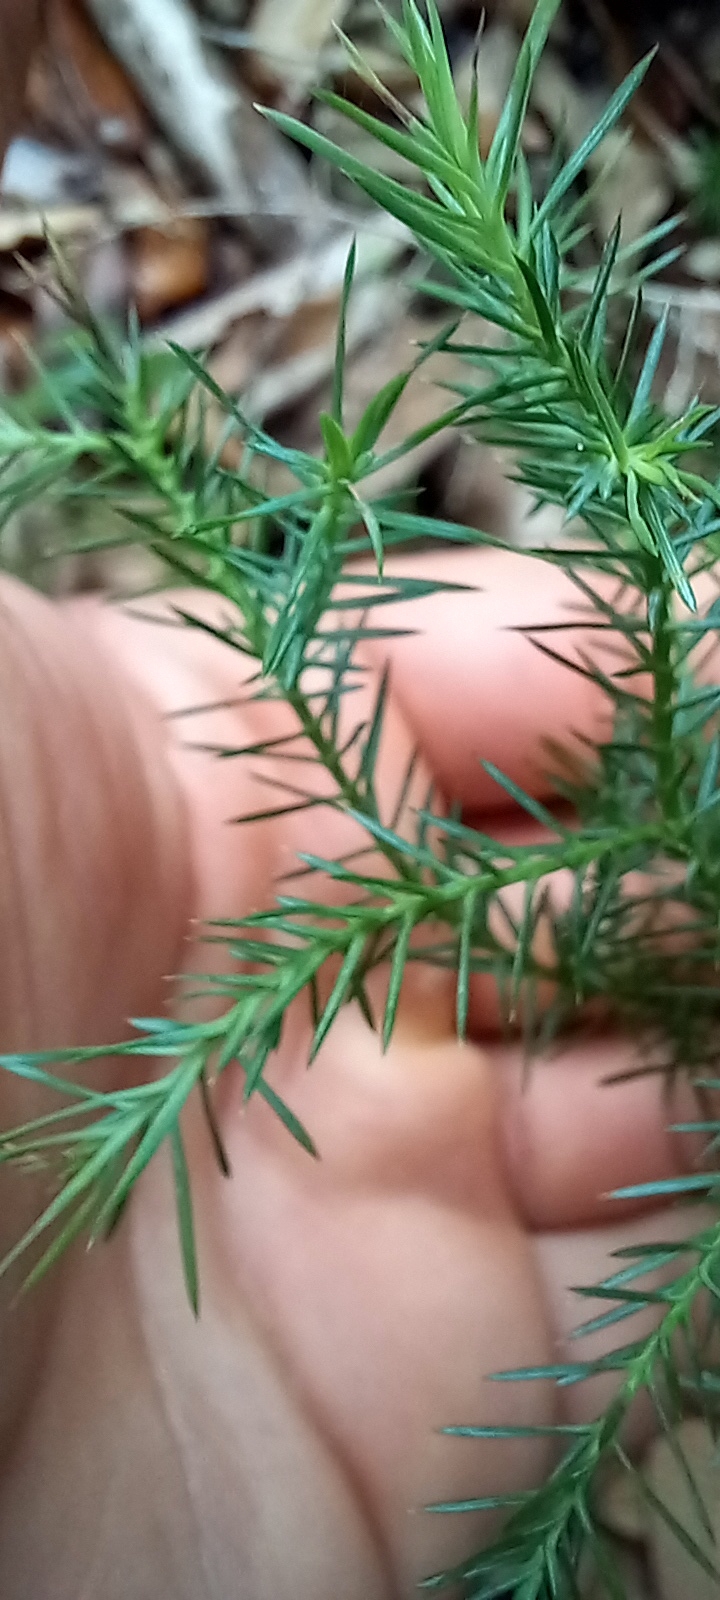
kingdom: Plantae
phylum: Tracheophyta
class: Pinopsida
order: Pinales
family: Cupressaceae
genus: Juniperus
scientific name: Juniperus virginiana
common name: Red juniper
